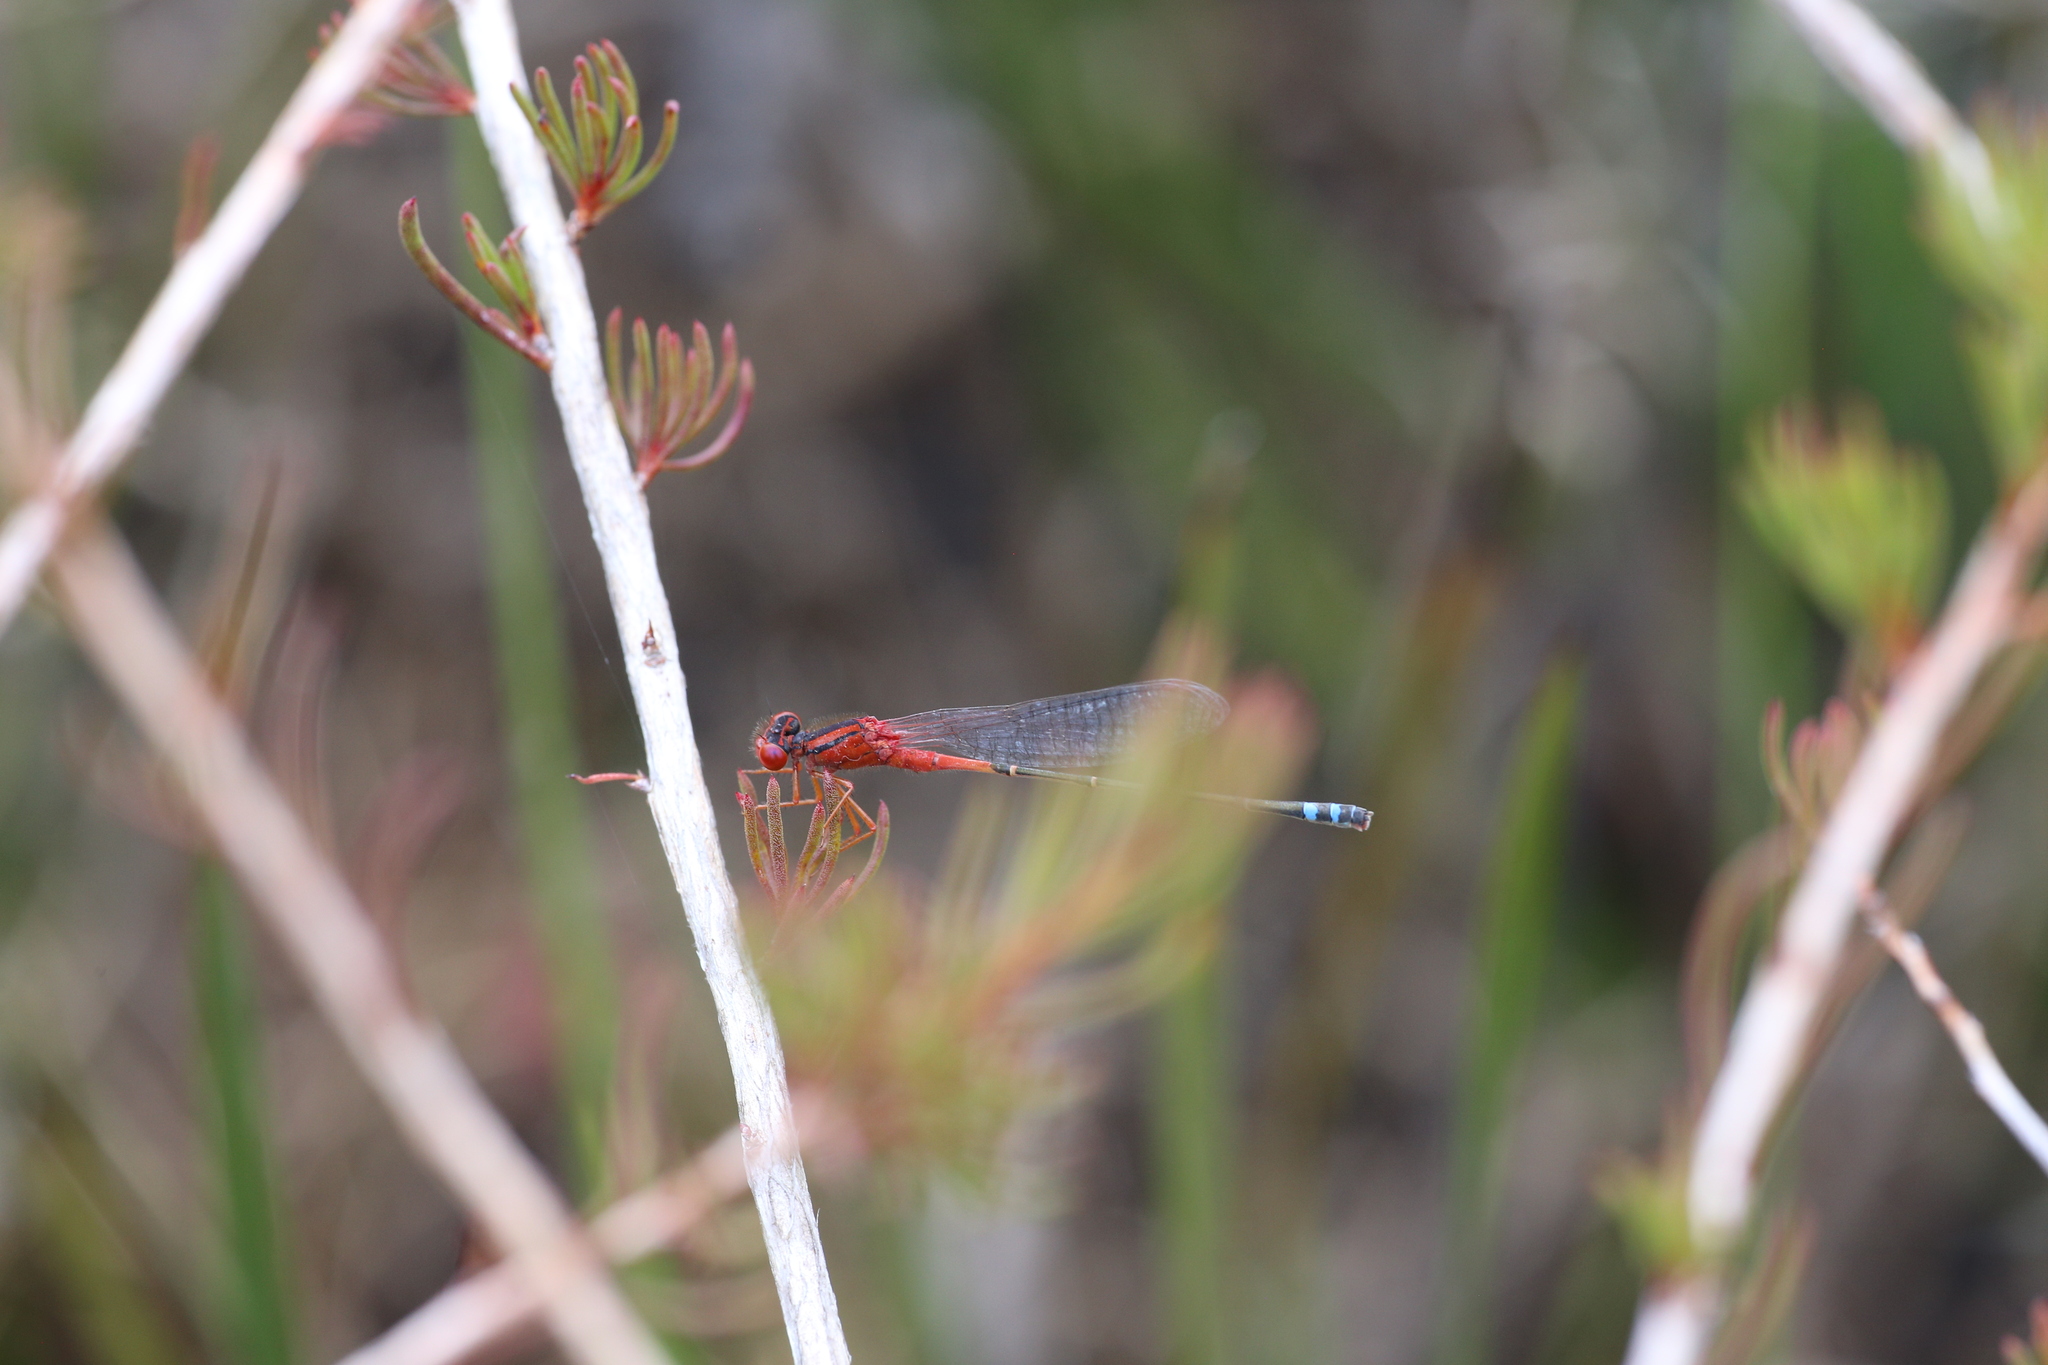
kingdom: Animalia
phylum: Arthropoda
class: Insecta
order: Odonata
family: Coenagrionidae
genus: Xanthagrion
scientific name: Xanthagrion erythroneurum
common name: Red and blue damsel
